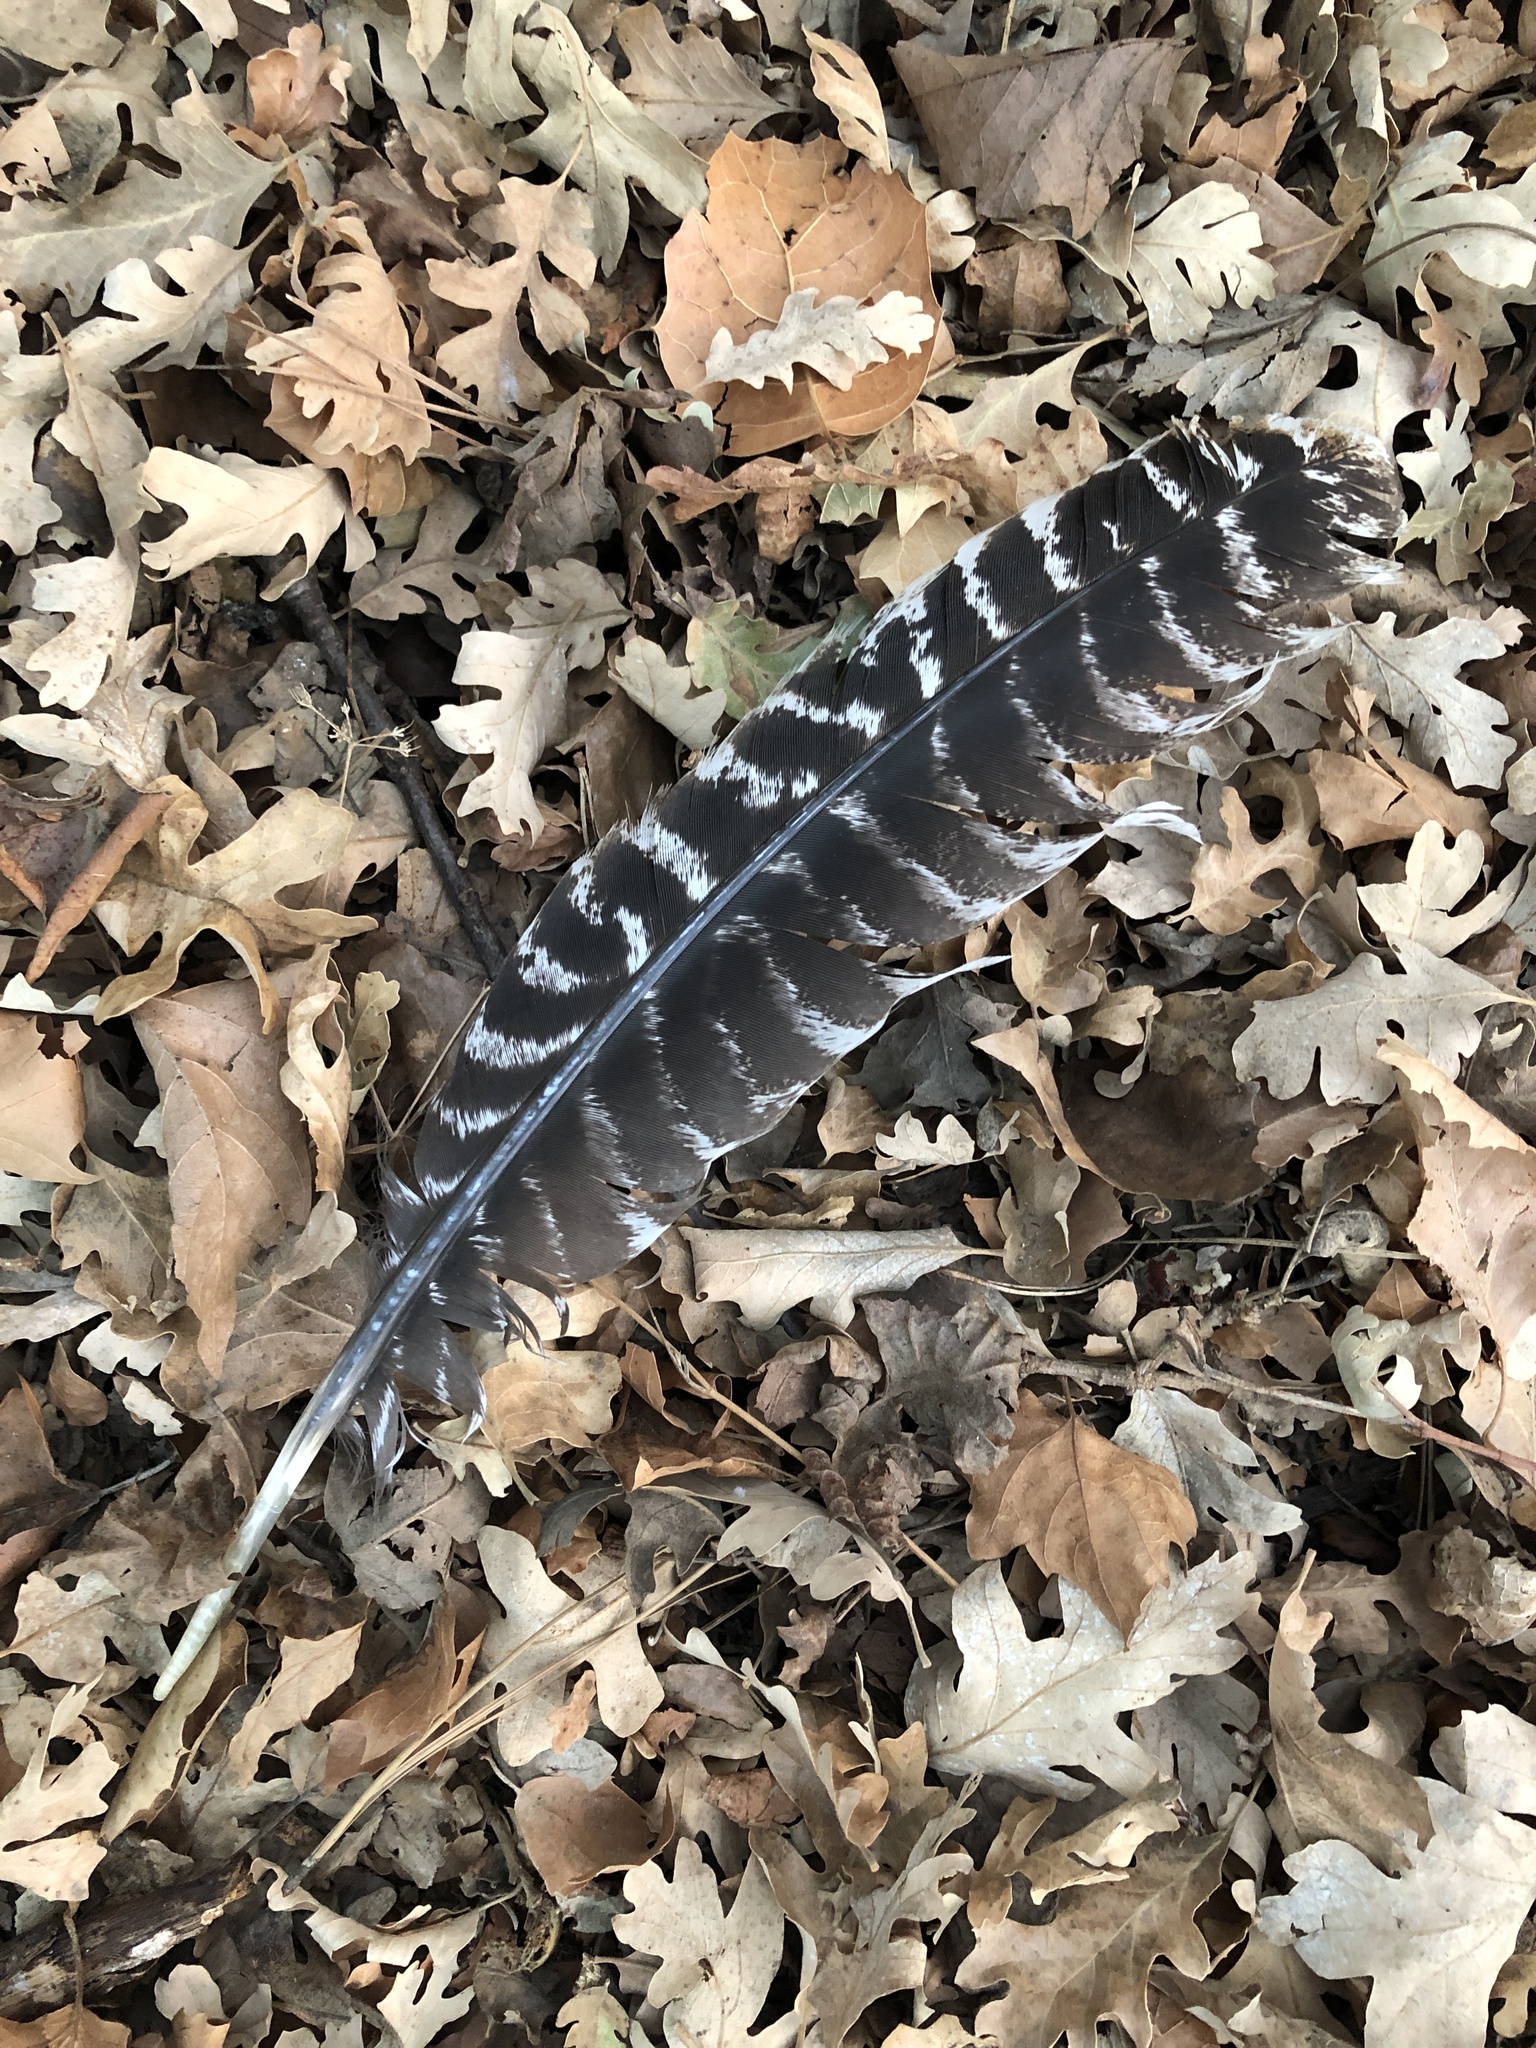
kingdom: Animalia
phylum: Chordata
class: Aves
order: Galliformes
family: Phasianidae
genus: Meleagris
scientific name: Meleagris gallopavo
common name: Wild turkey
